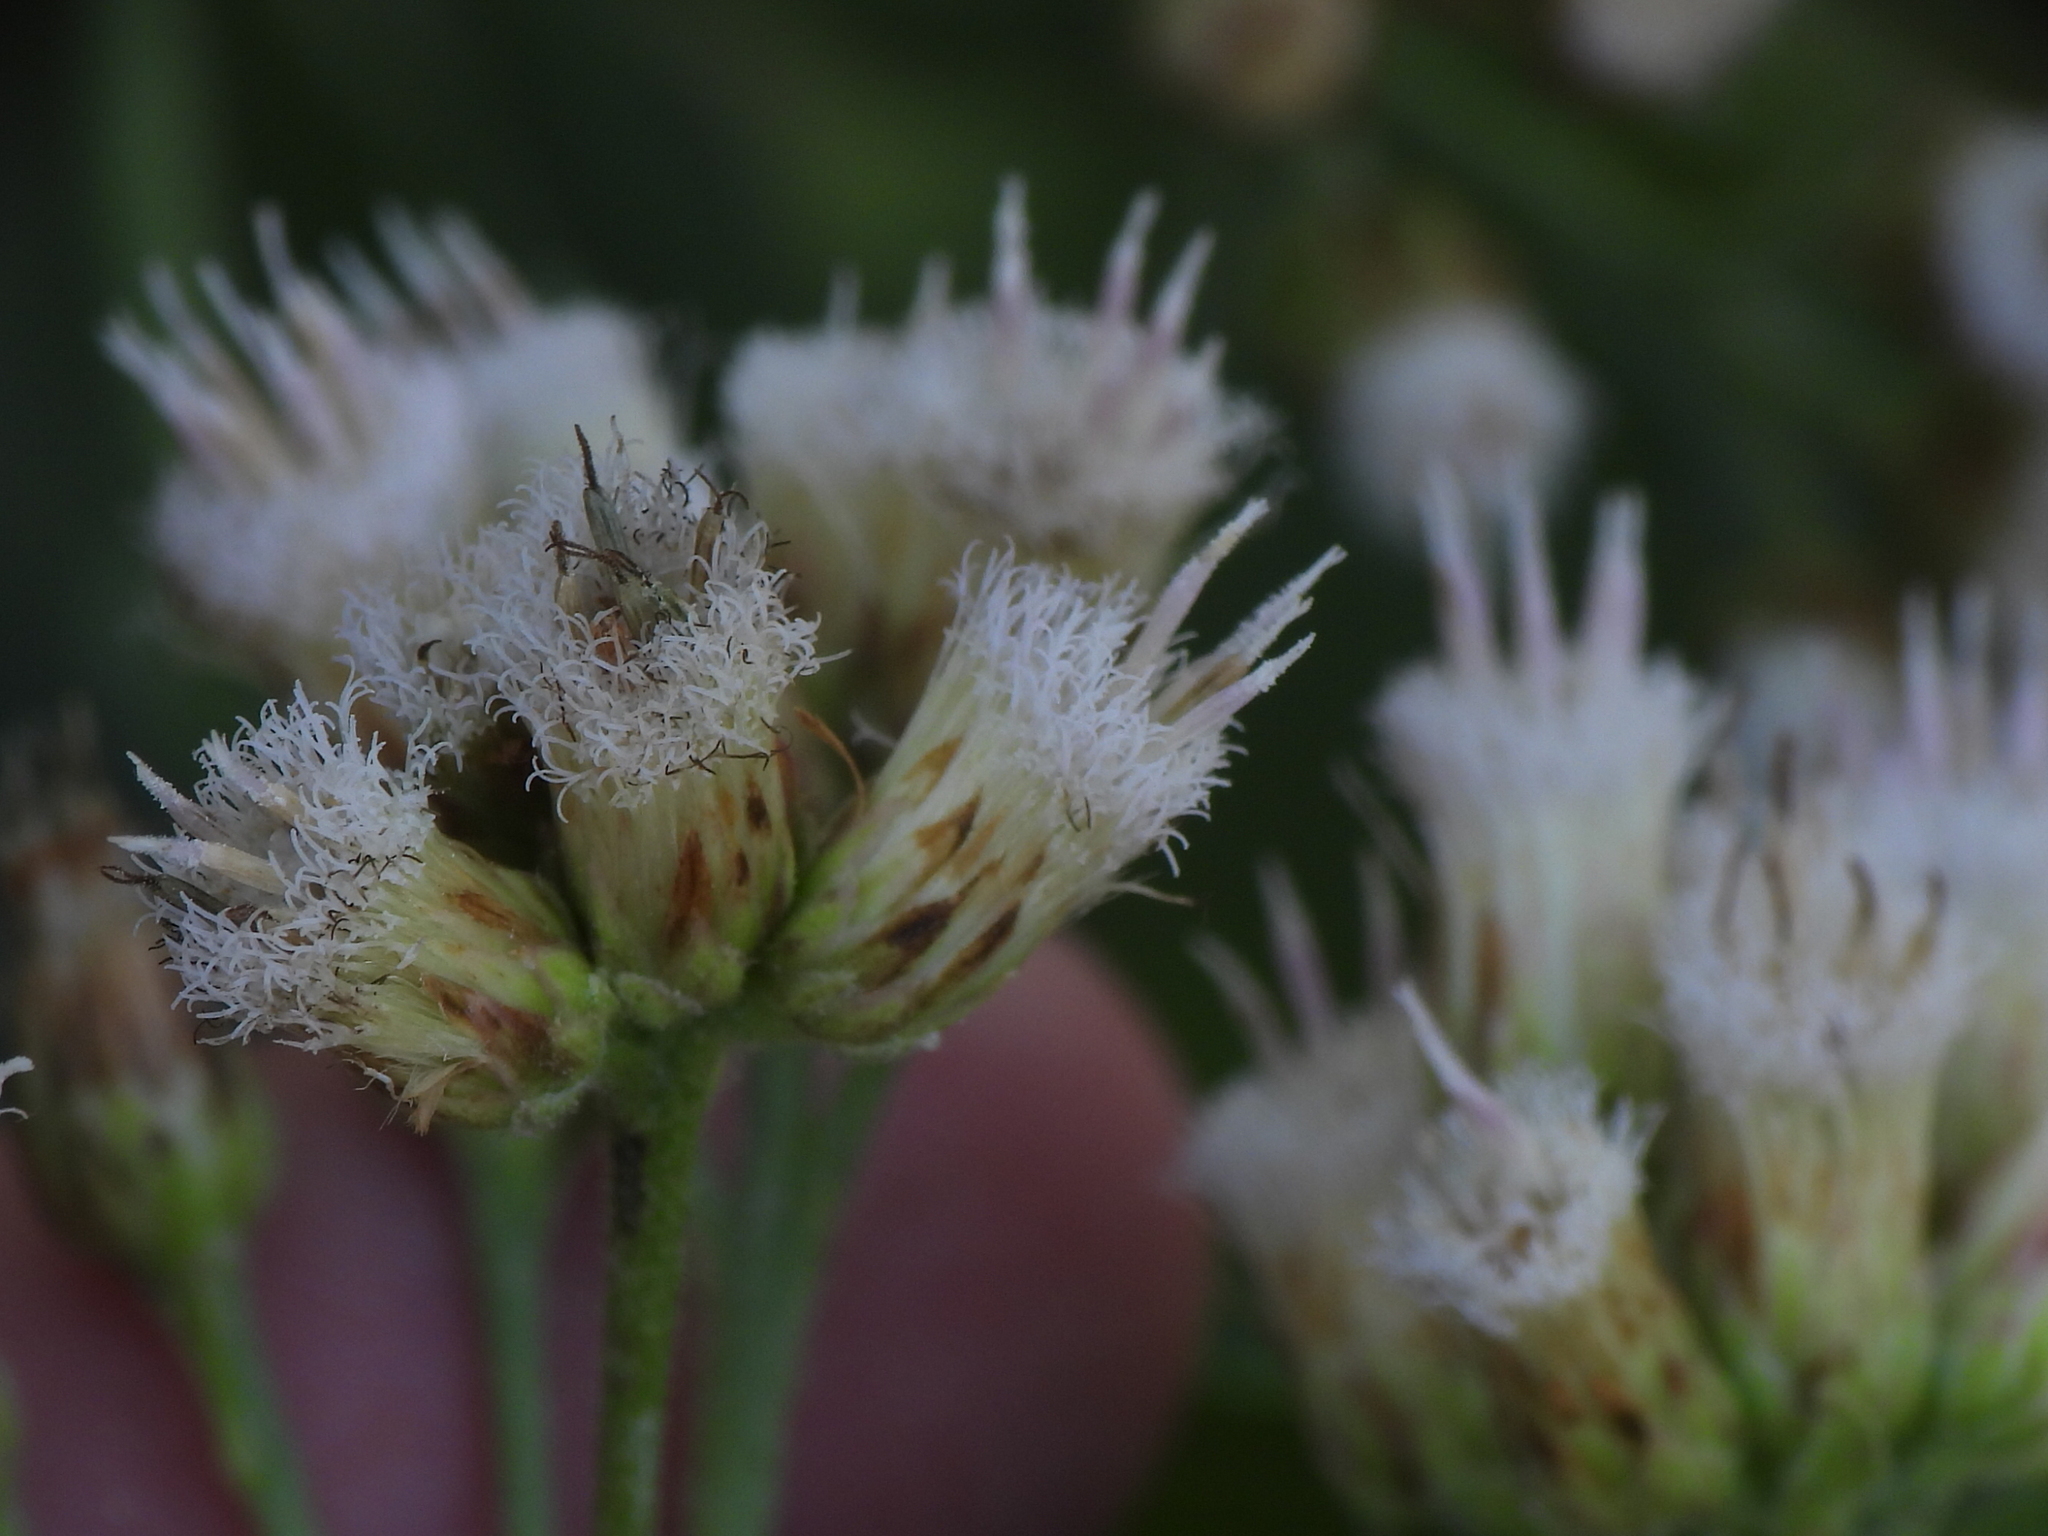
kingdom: Plantae
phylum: Tracheophyta
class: Magnoliopsida
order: Asterales
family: Asteraceae
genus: Pluchea
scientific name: Pluchea dioscoridis
